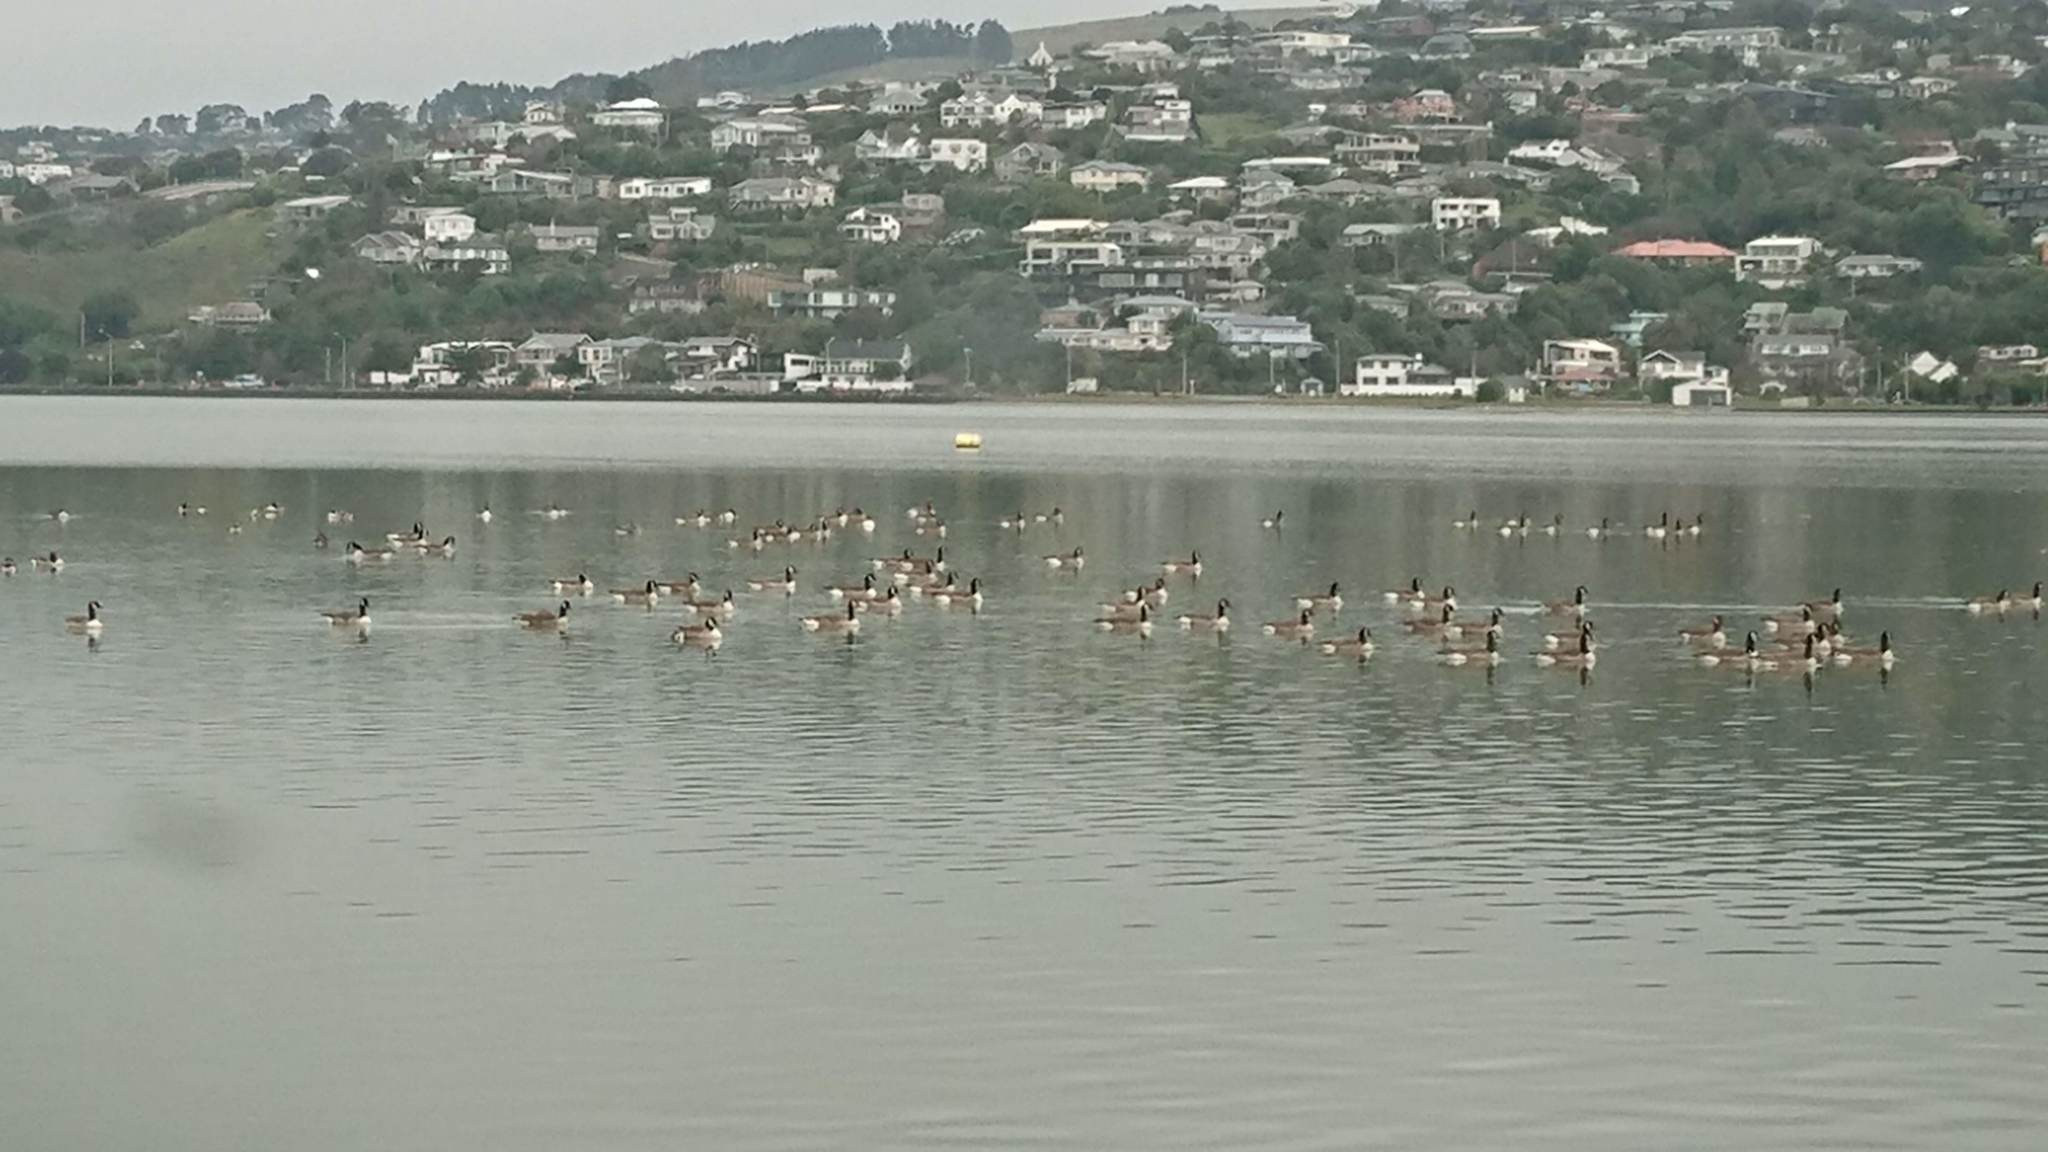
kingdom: Animalia
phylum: Chordata
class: Aves
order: Anseriformes
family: Anatidae
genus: Branta
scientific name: Branta canadensis
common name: Canada goose
